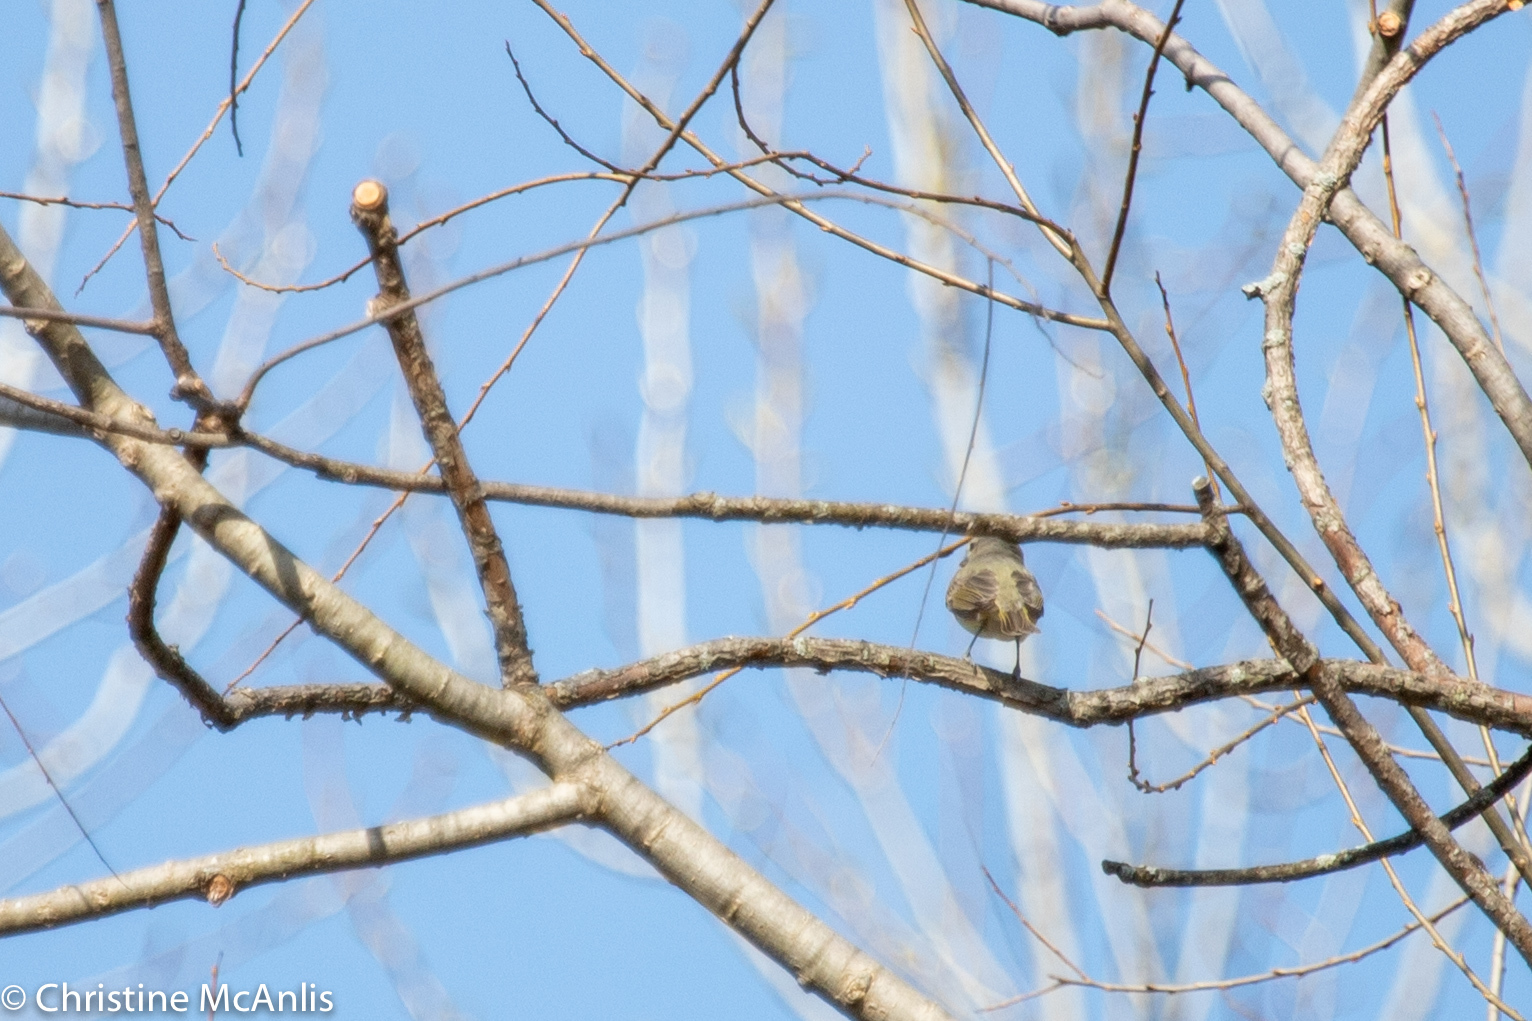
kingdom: Animalia
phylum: Chordata
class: Aves
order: Passeriformes
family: Vireonidae
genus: Vireo
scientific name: Vireo gilvus
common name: Warbling vireo
